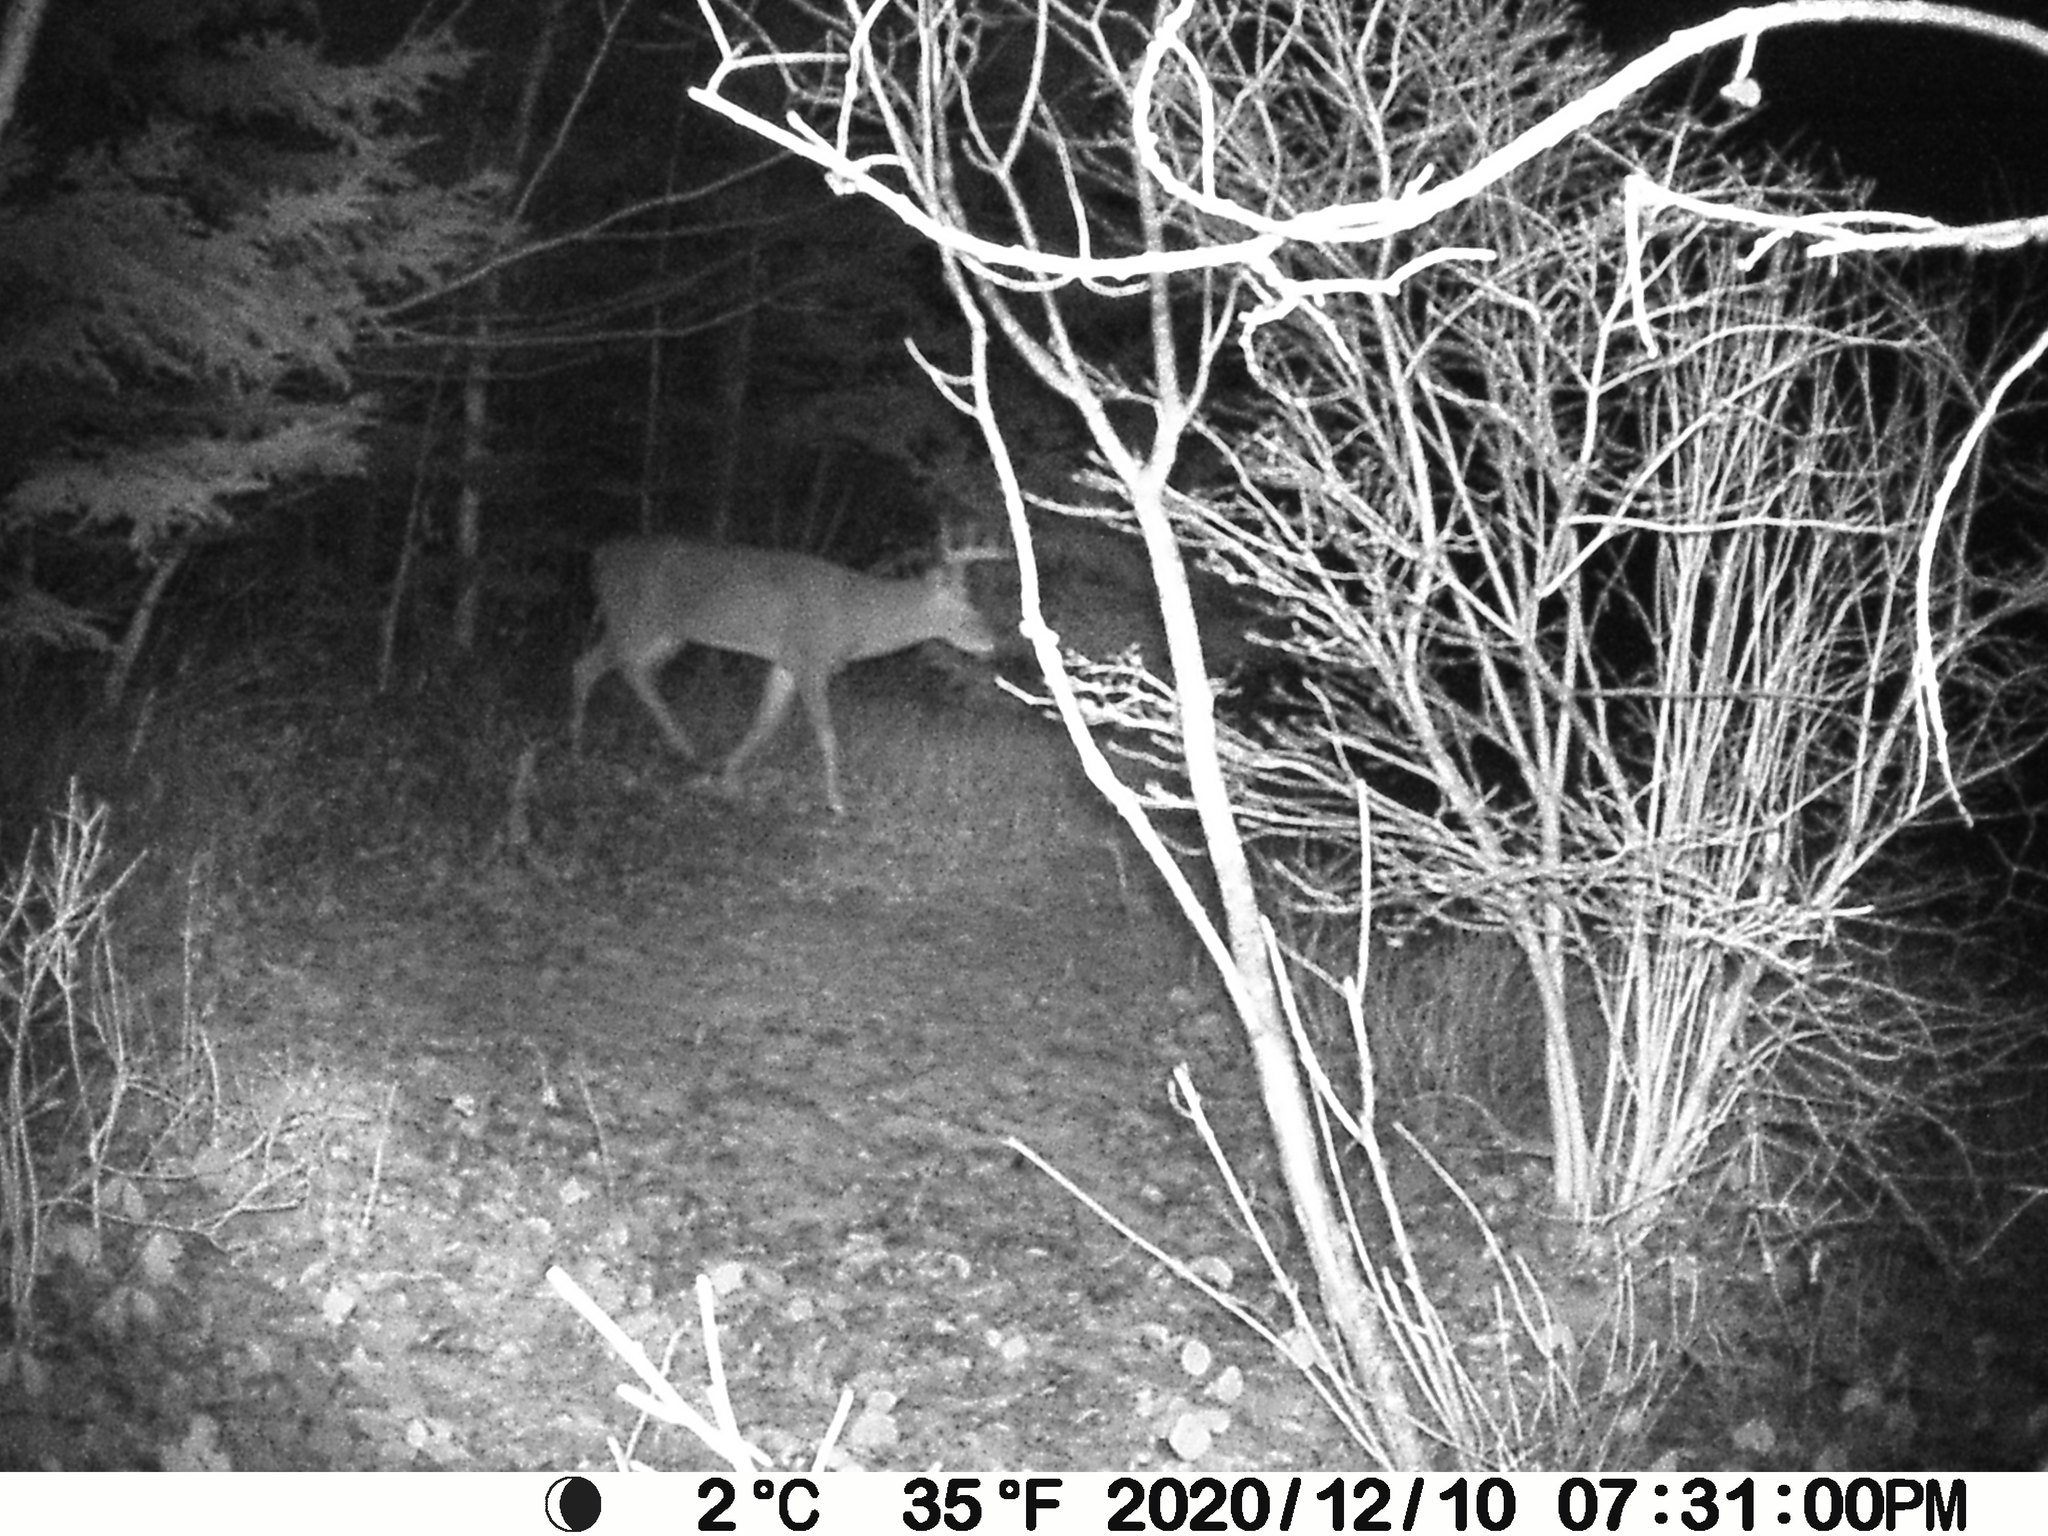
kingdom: Animalia
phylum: Chordata
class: Mammalia
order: Artiodactyla
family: Cervidae
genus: Odocoileus
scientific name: Odocoileus virginianus
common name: White-tailed deer
